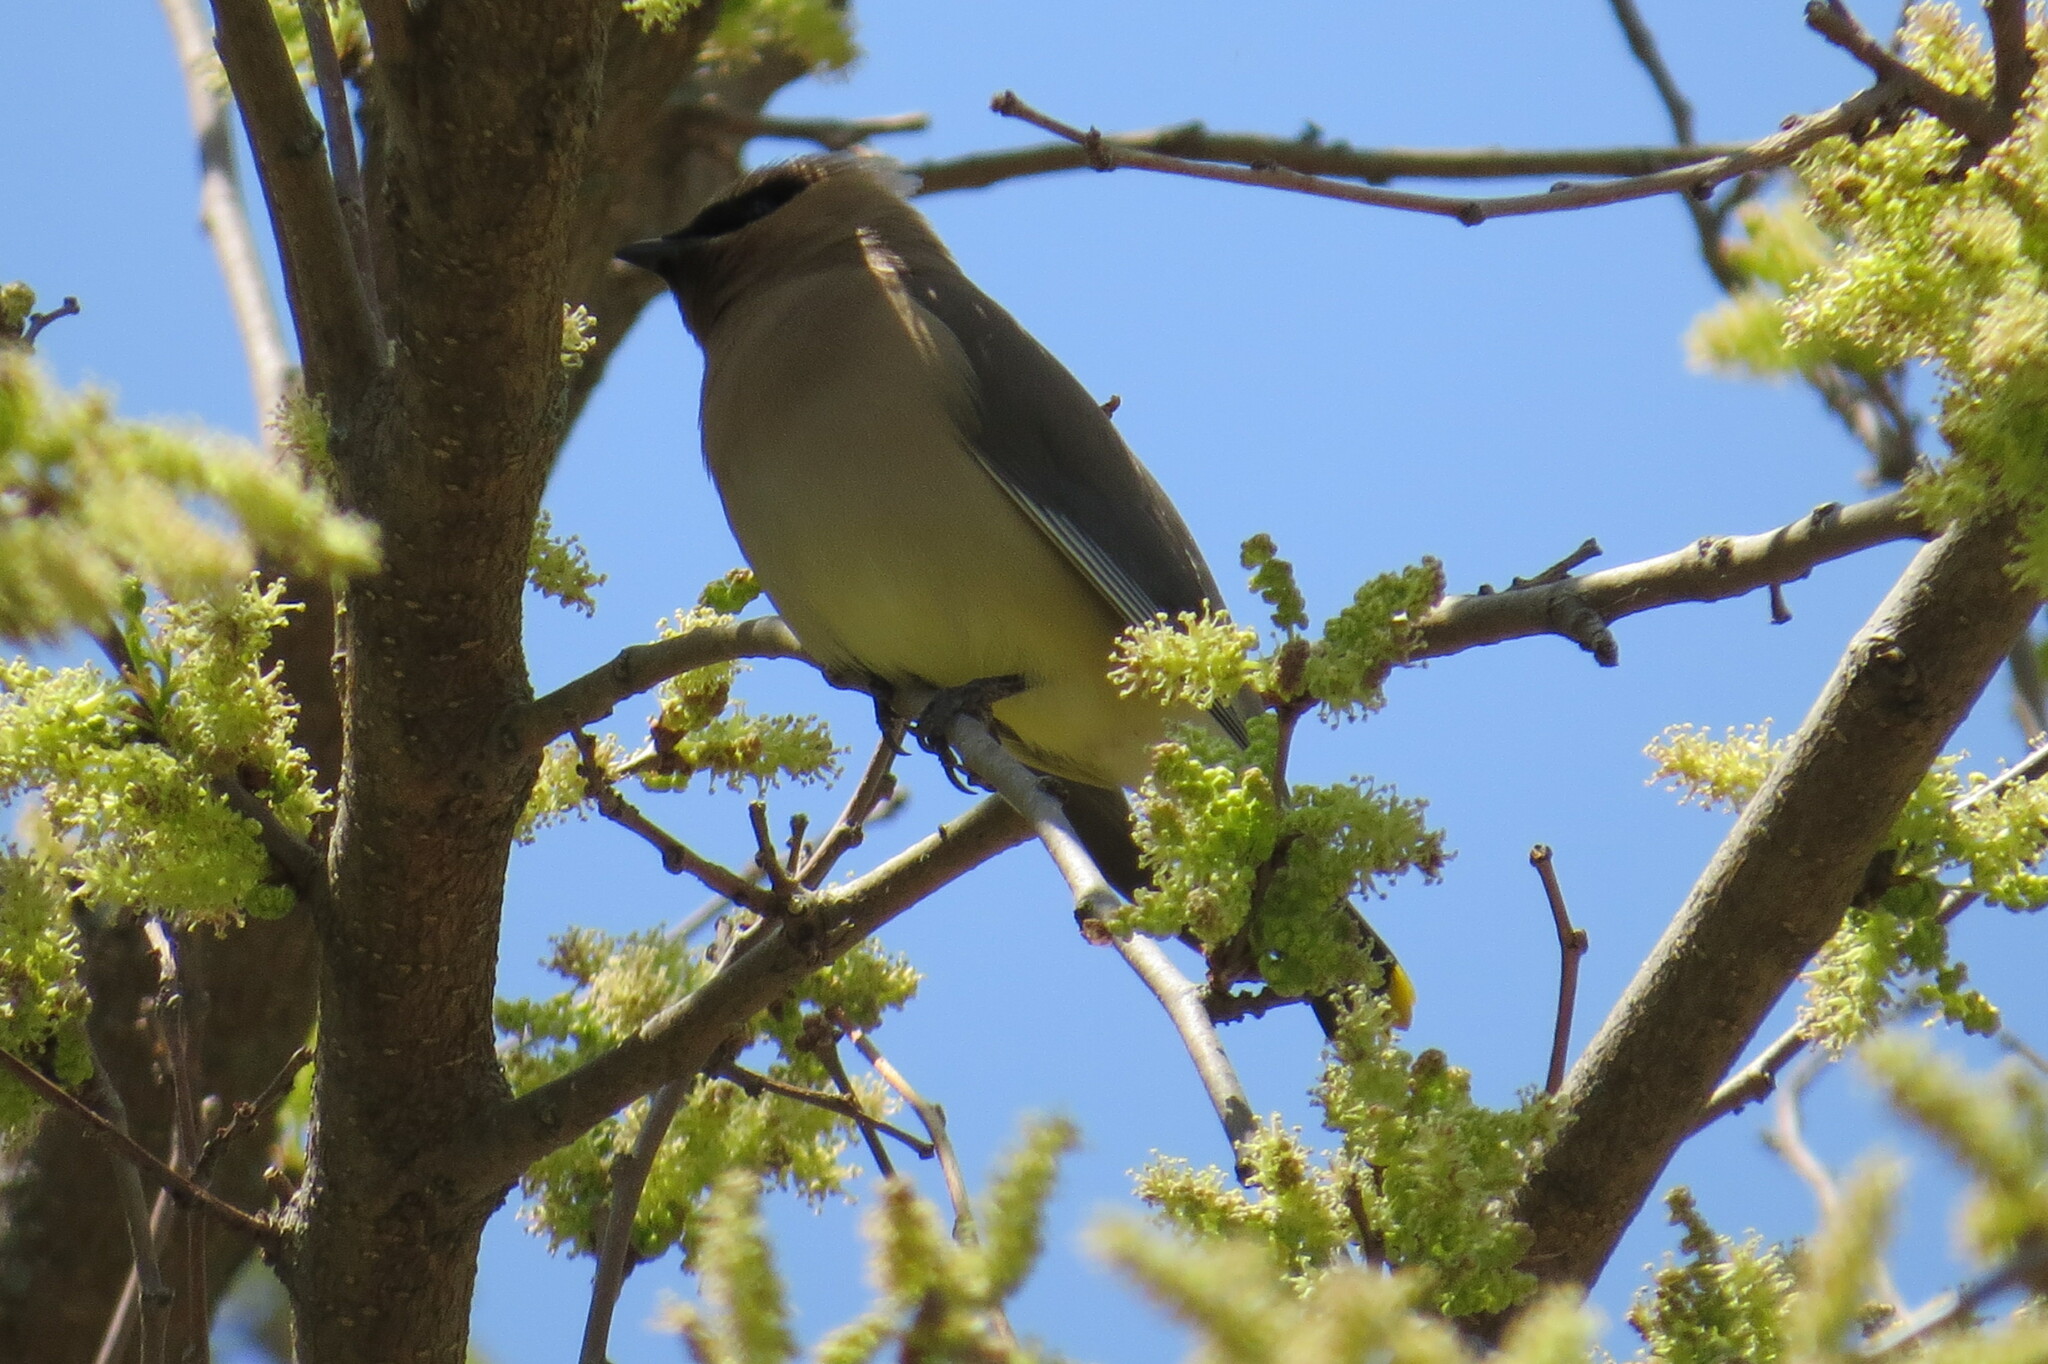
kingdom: Animalia
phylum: Chordata
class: Aves
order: Passeriformes
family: Bombycillidae
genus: Bombycilla
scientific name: Bombycilla cedrorum
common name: Cedar waxwing
